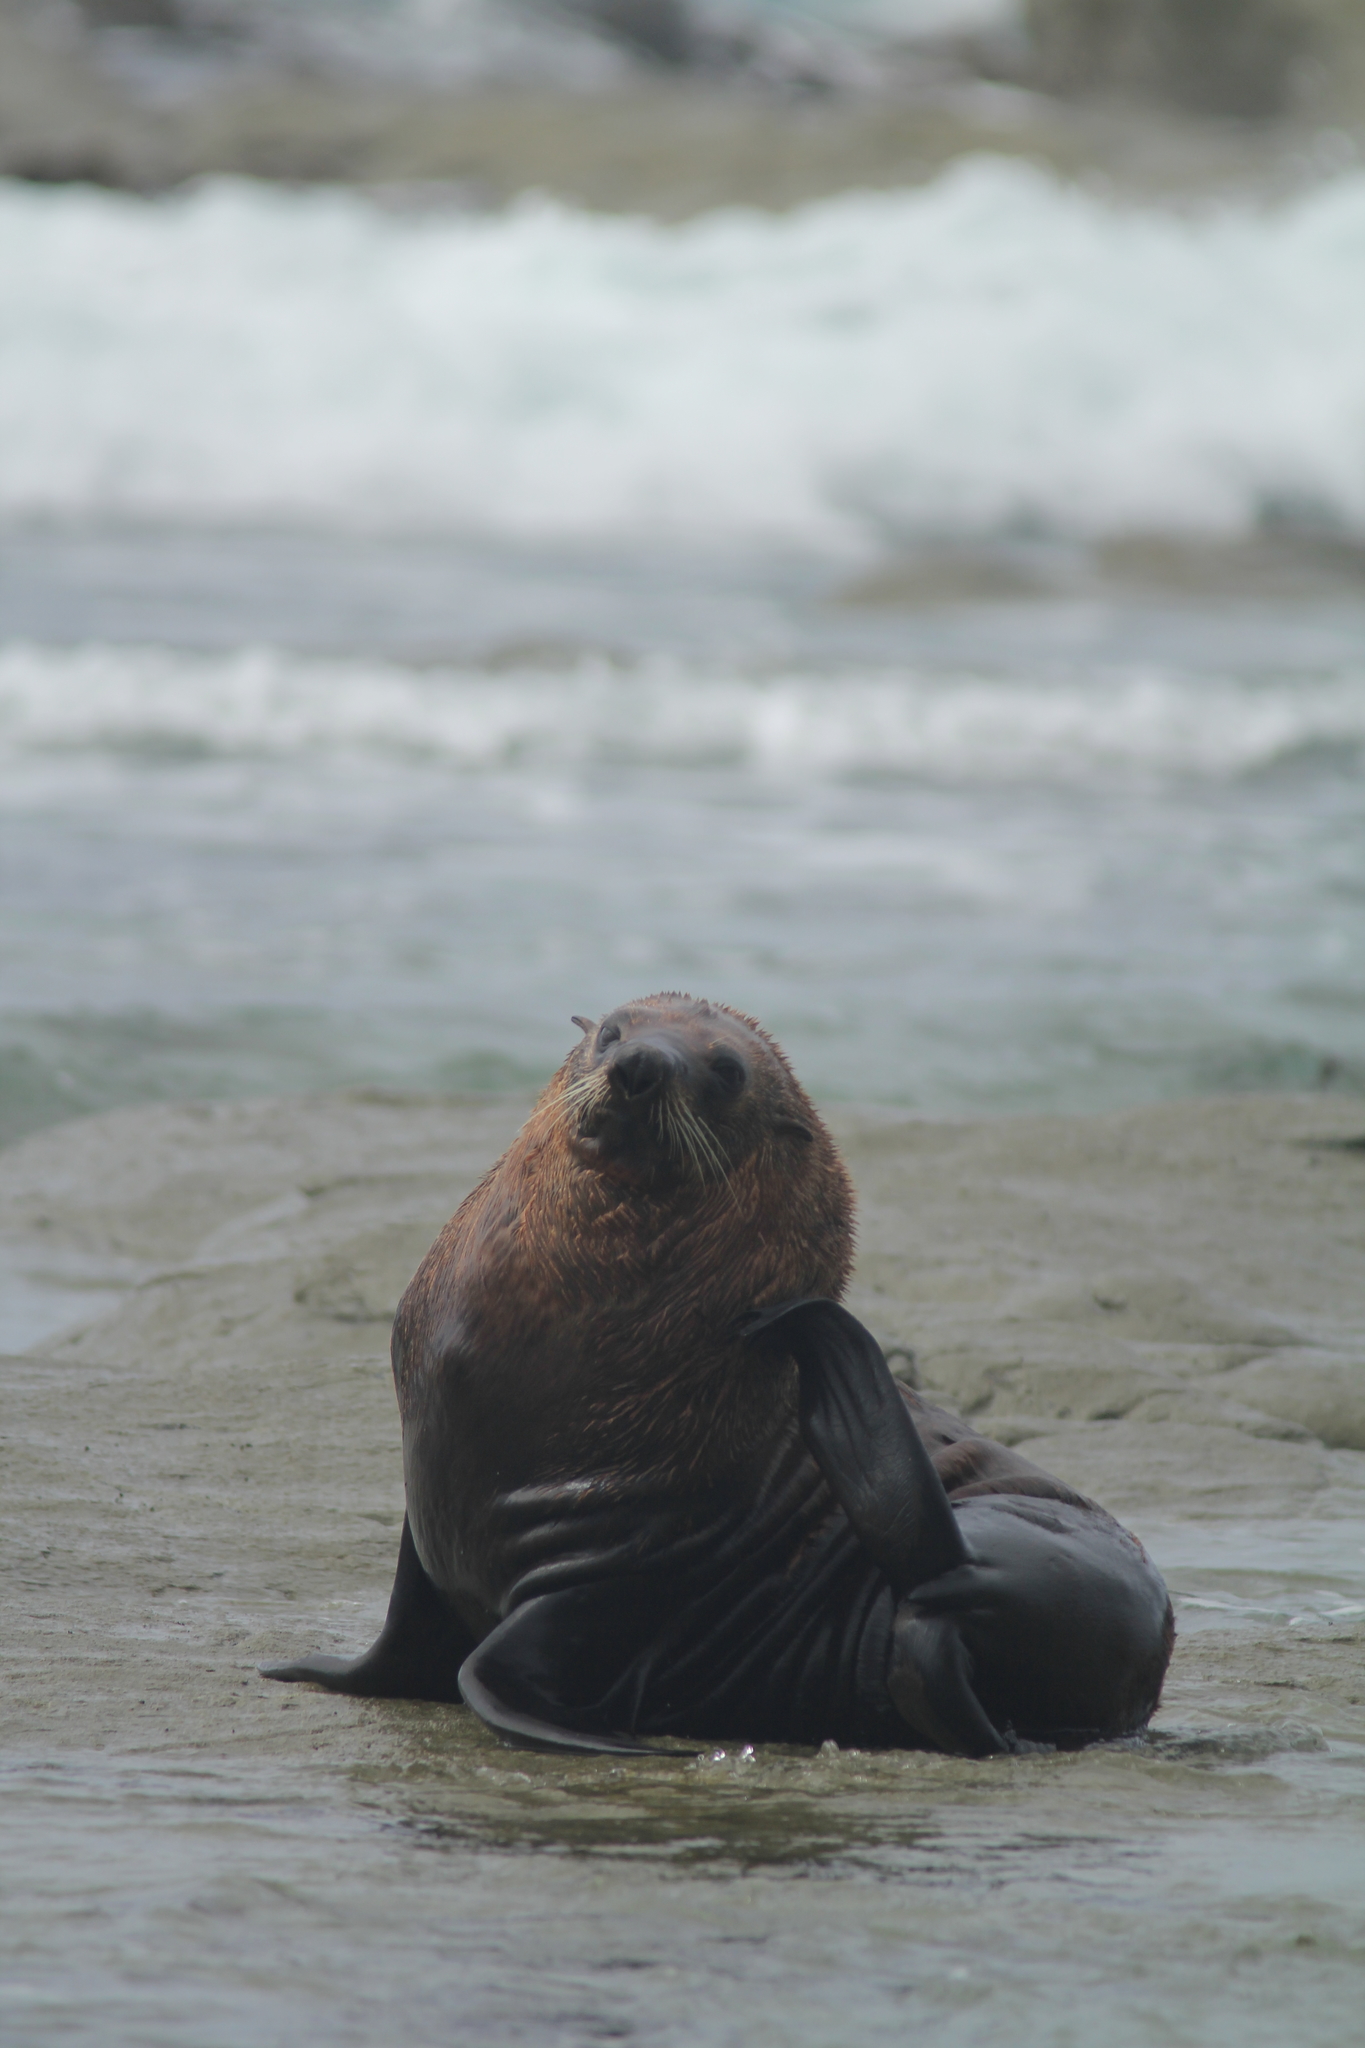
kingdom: Animalia
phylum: Chordata
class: Mammalia
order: Carnivora
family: Otariidae
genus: Arctocephalus
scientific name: Arctocephalus forsteri
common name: New zealand fur seal
